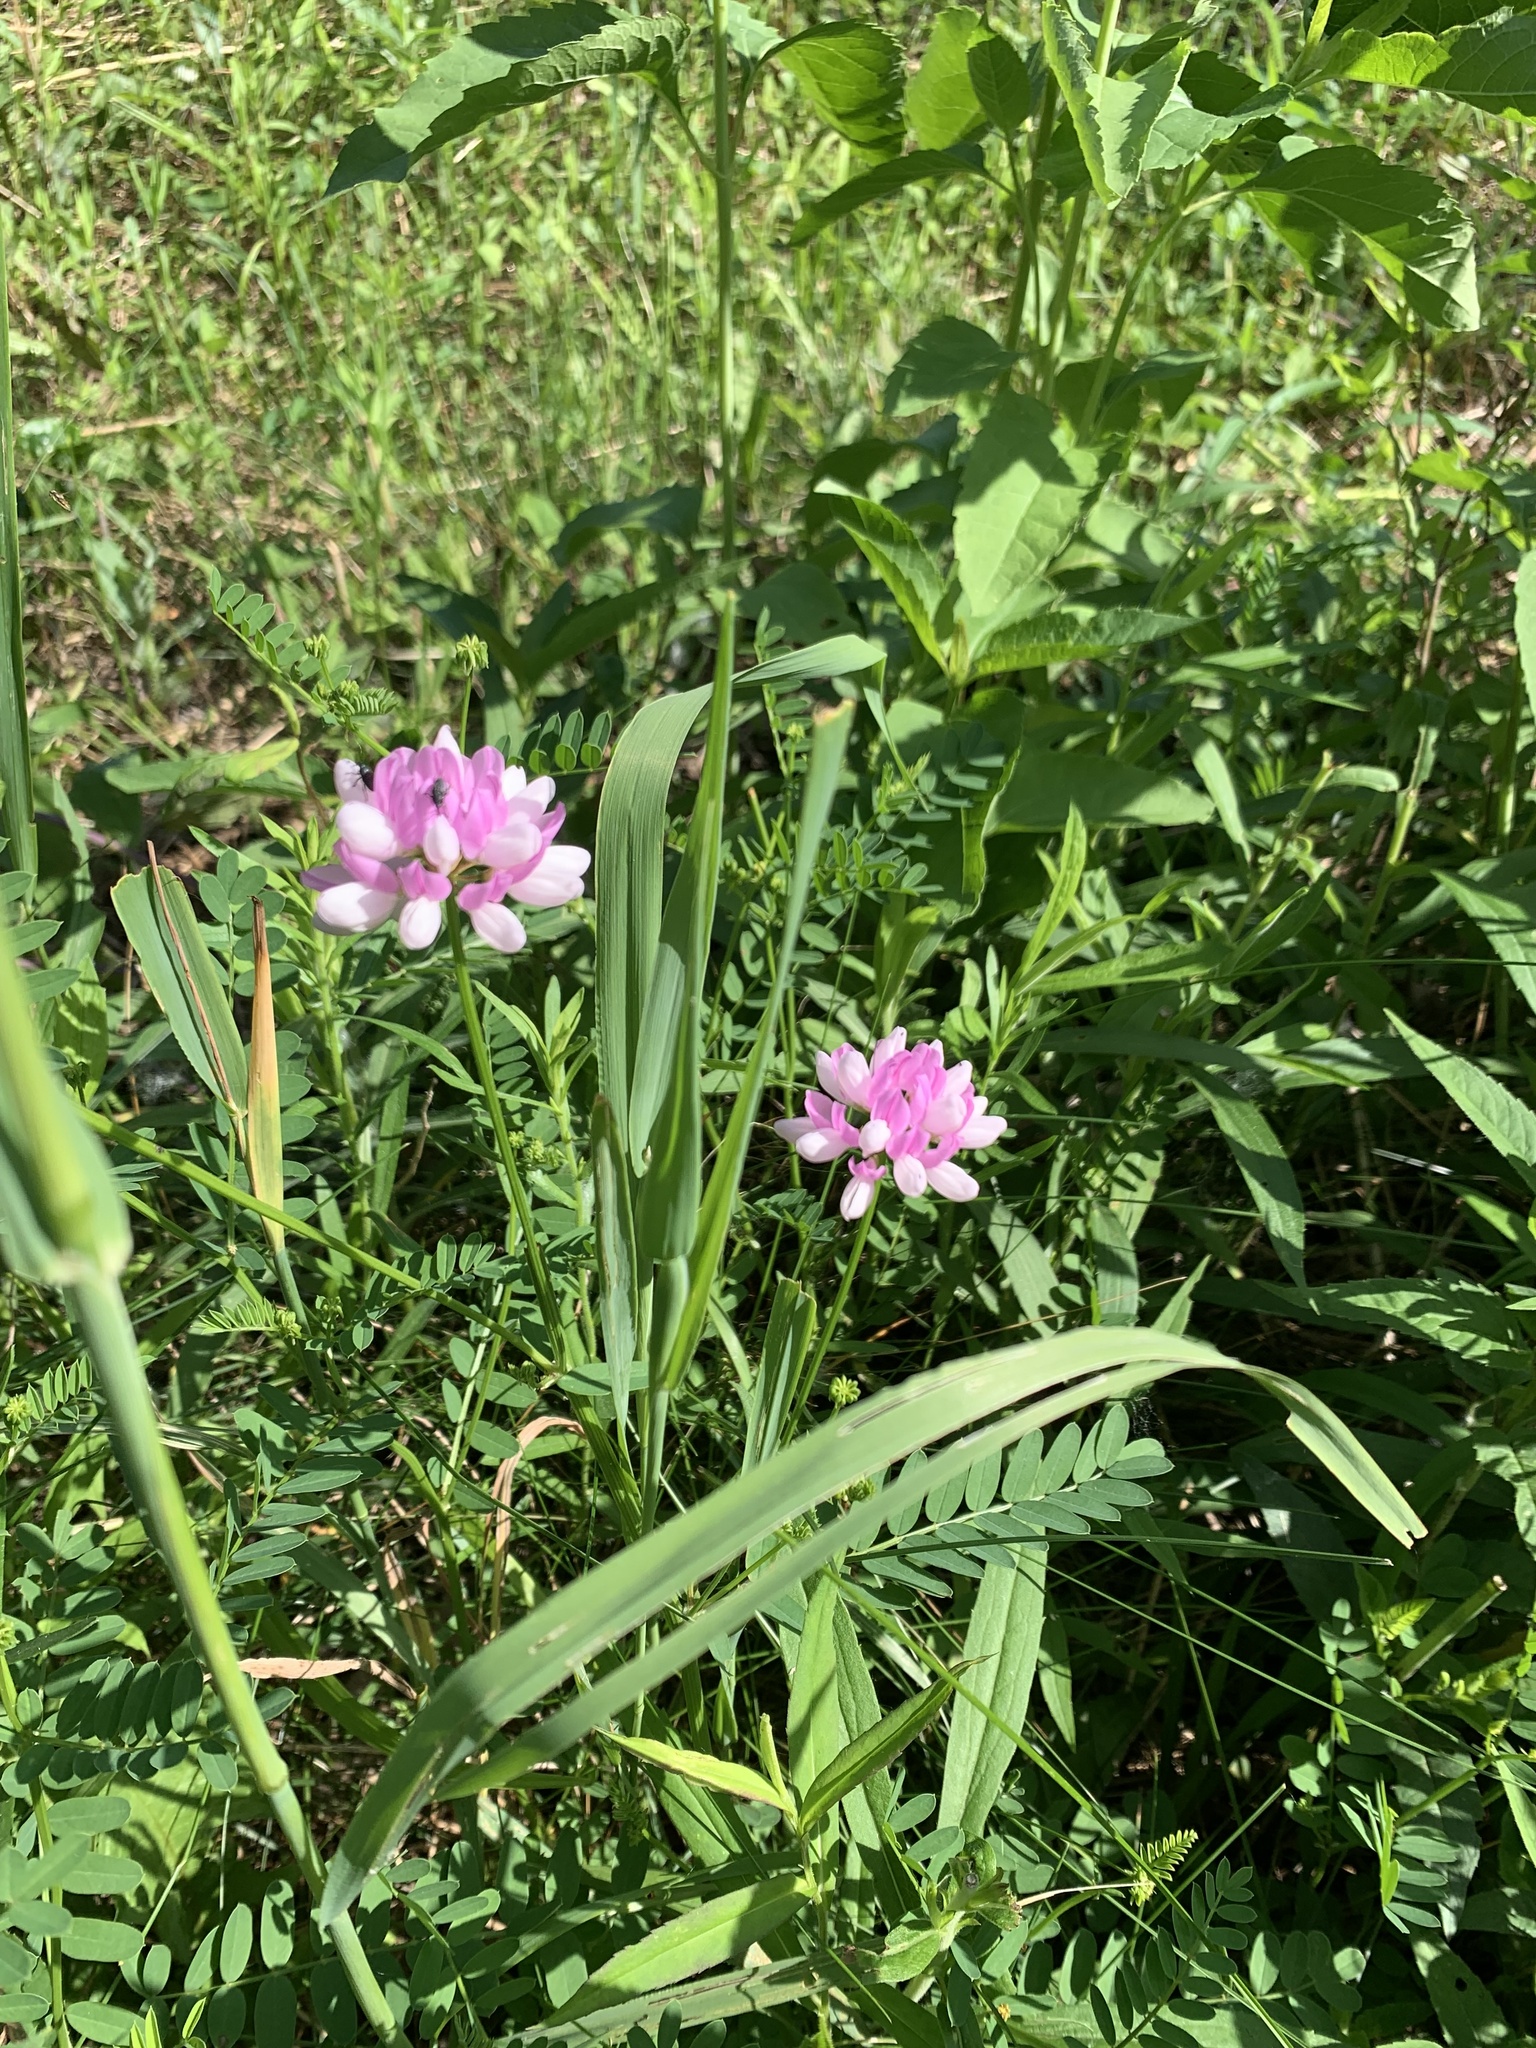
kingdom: Plantae
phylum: Tracheophyta
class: Magnoliopsida
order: Fabales
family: Fabaceae
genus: Coronilla
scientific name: Coronilla varia
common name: Crownvetch
